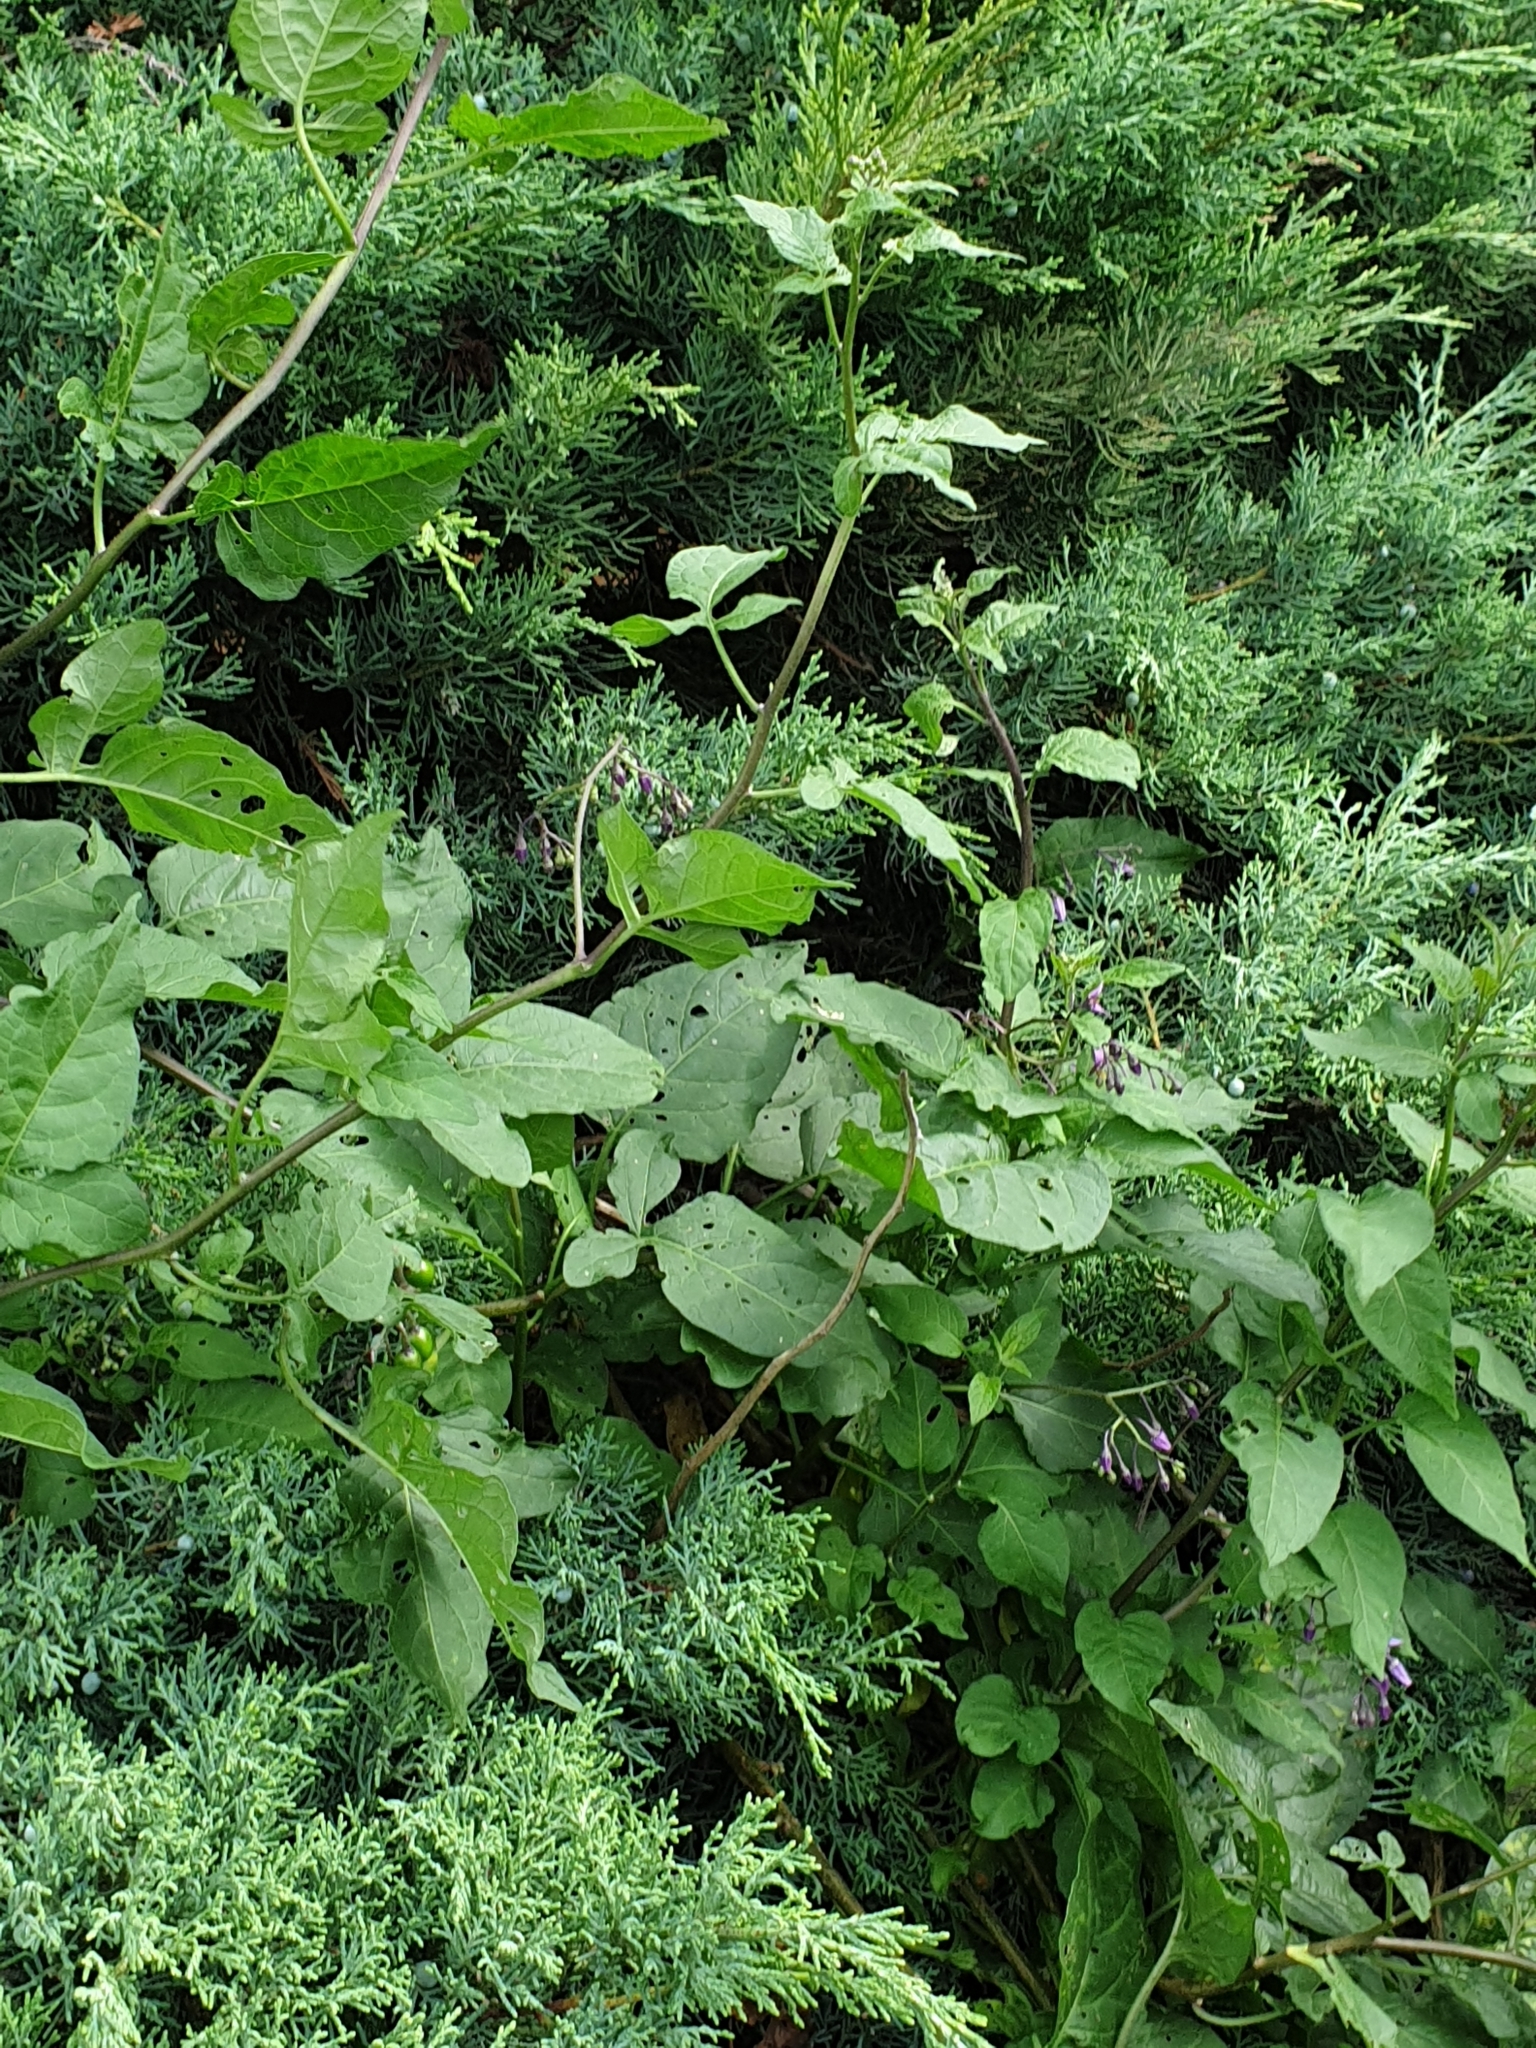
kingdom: Plantae
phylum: Tracheophyta
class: Magnoliopsida
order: Solanales
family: Solanaceae
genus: Solanum
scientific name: Solanum dulcamara
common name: Climbing nightshade
